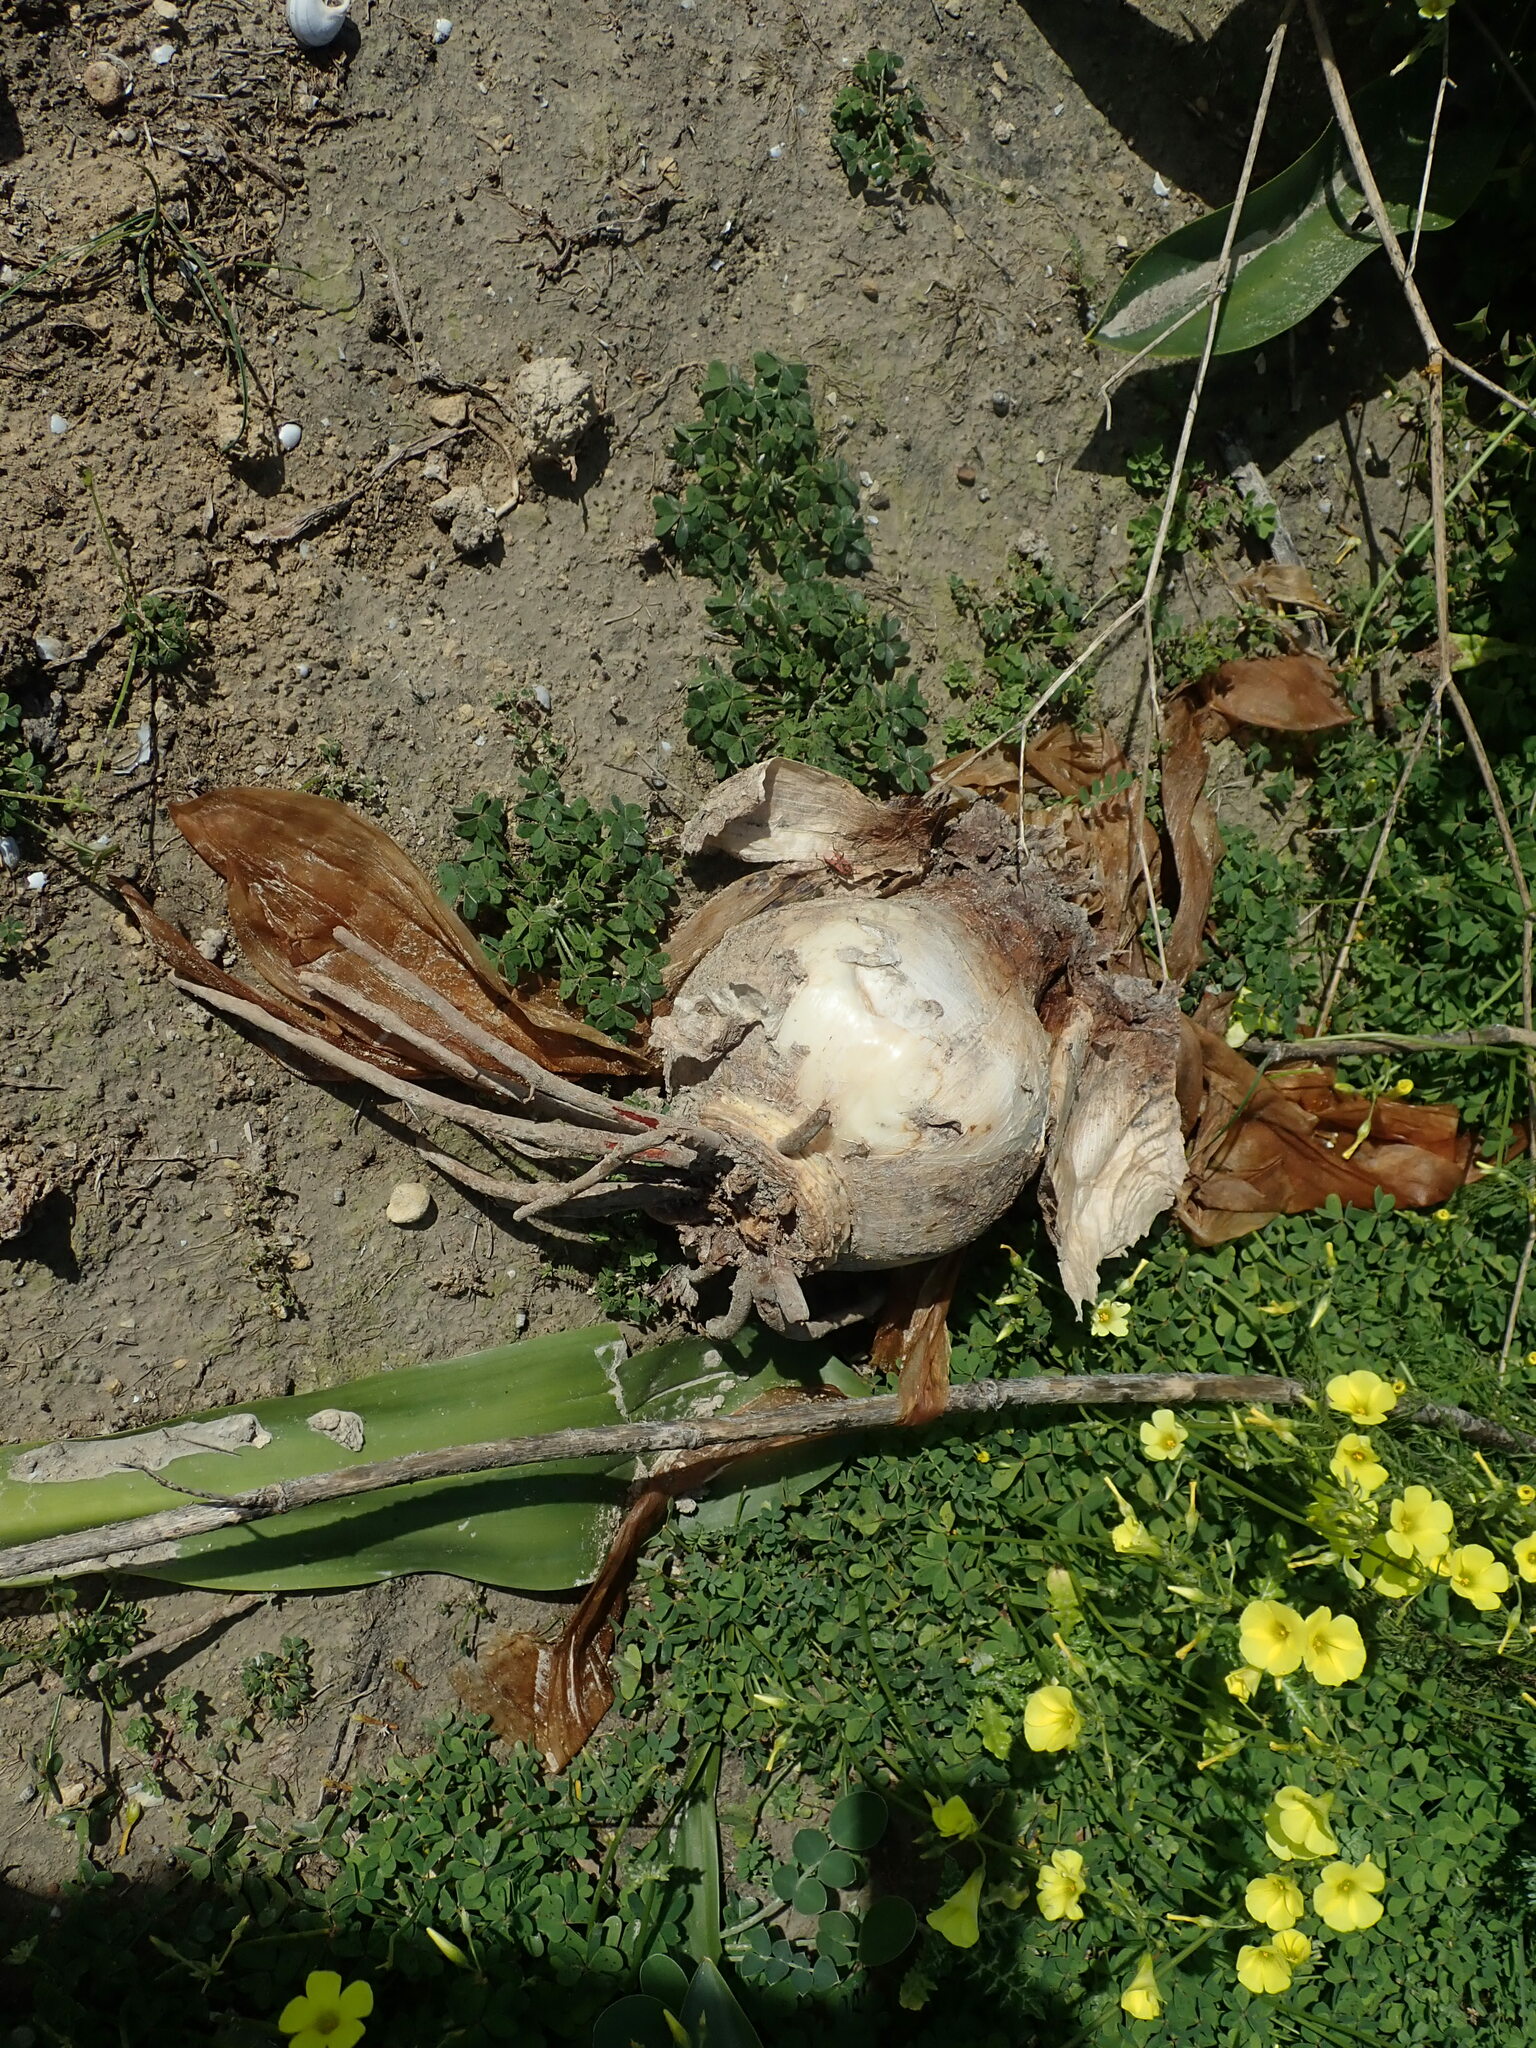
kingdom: Plantae
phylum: Tracheophyta
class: Liliopsida
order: Asparagales
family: Asparagaceae
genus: Drimia
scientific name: Drimia pancration
